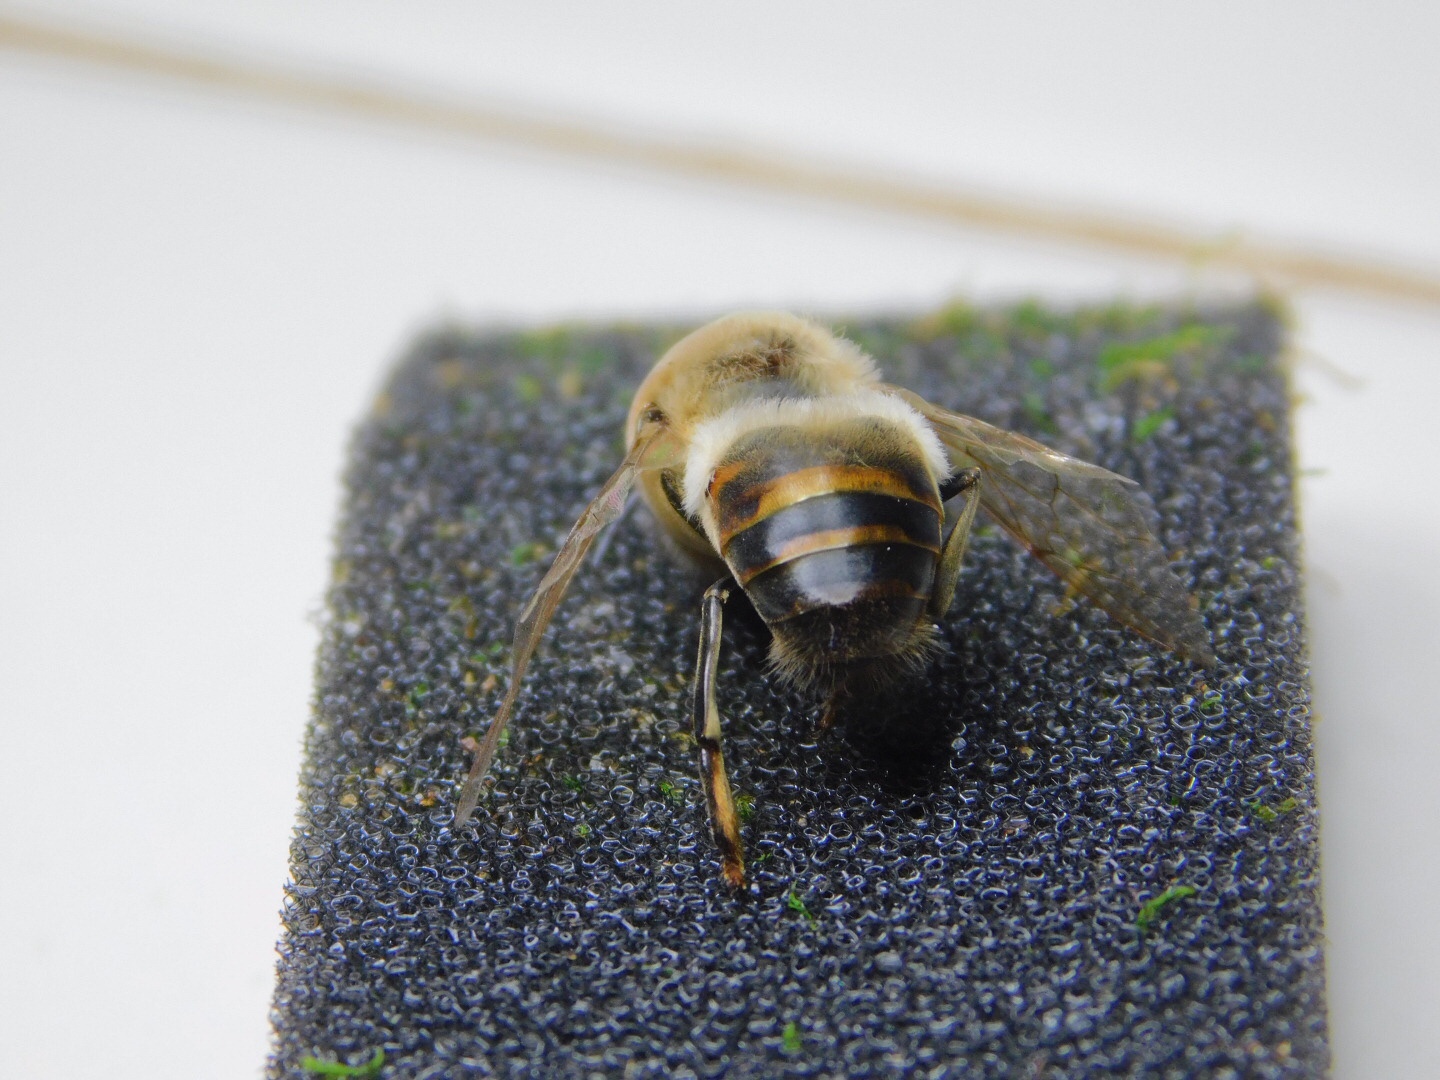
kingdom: Animalia
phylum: Arthropoda
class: Insecta
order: Hymenoptera
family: Apidae
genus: Apis
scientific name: Apis mellifera
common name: Honey bee
